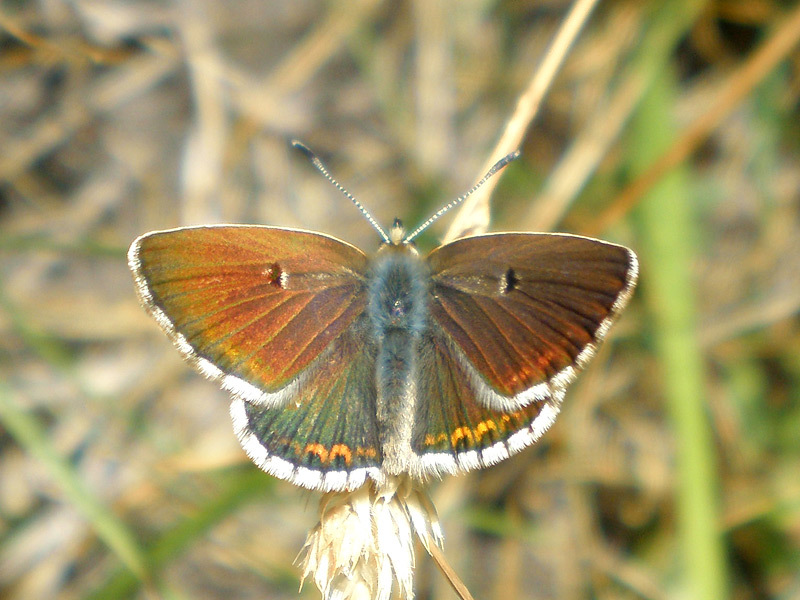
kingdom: Animalia
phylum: Arthropoda
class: Insecta
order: Lepidoptera
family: Lycaenidae
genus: Aricia
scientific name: Aricia morronensis
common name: Spanish argus
